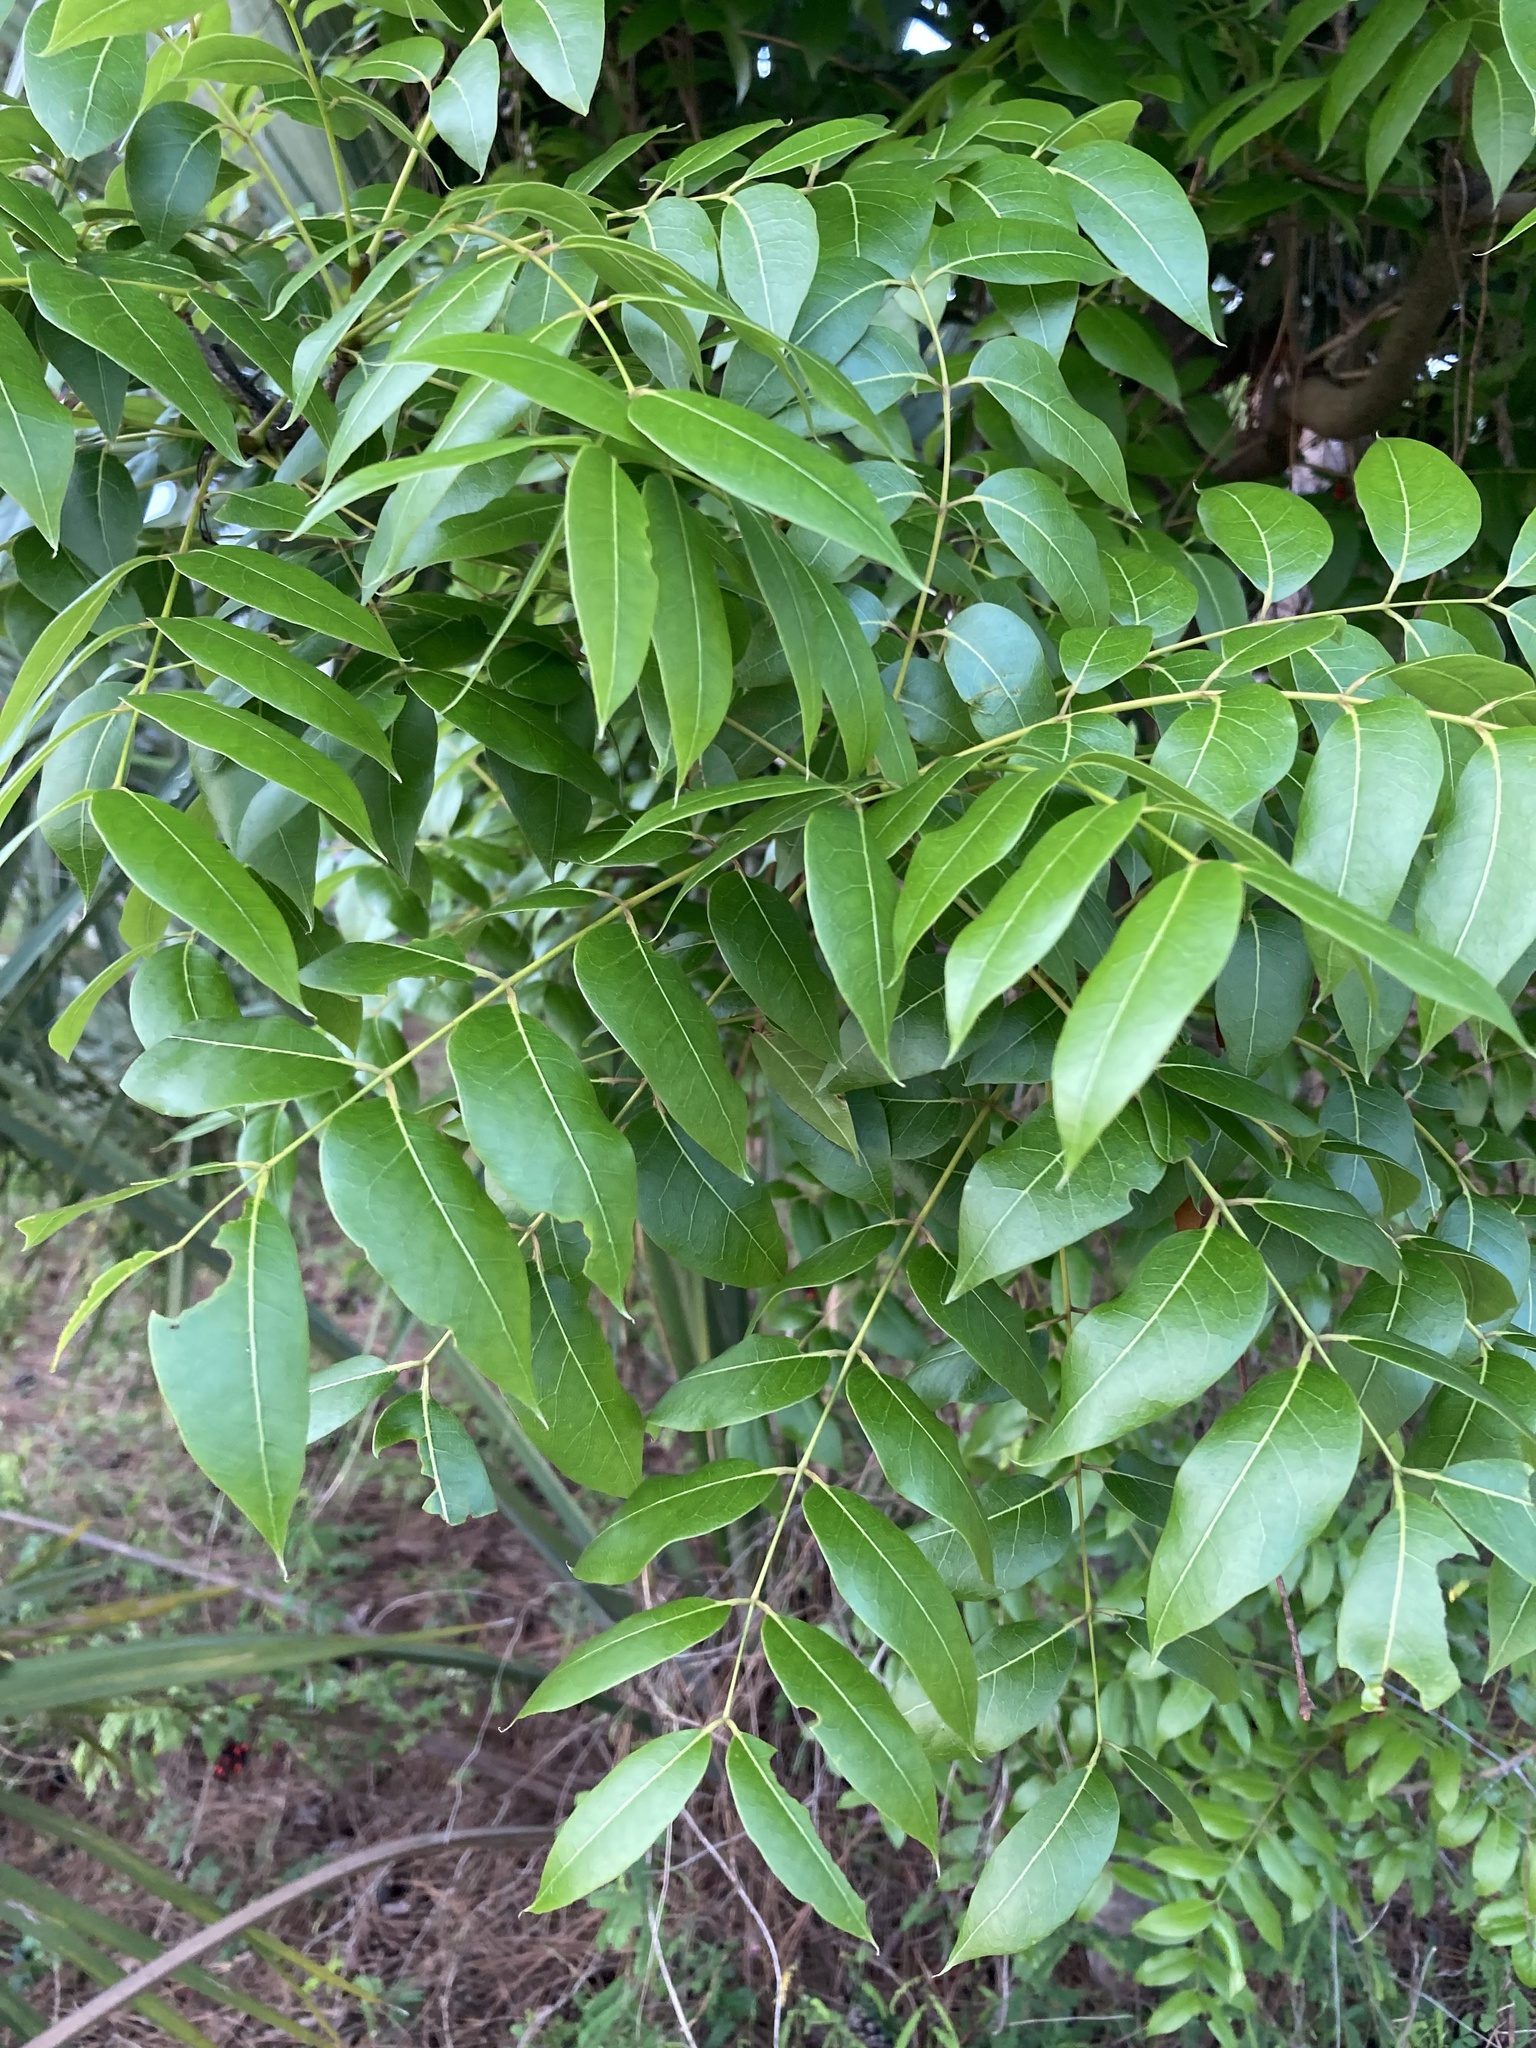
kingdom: Plantae
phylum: Tracheophyta
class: Magnoliopsida
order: Sapindales
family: Meliaceae
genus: Swietenia
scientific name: Swietenia mahagoni
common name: West indian mahogany
